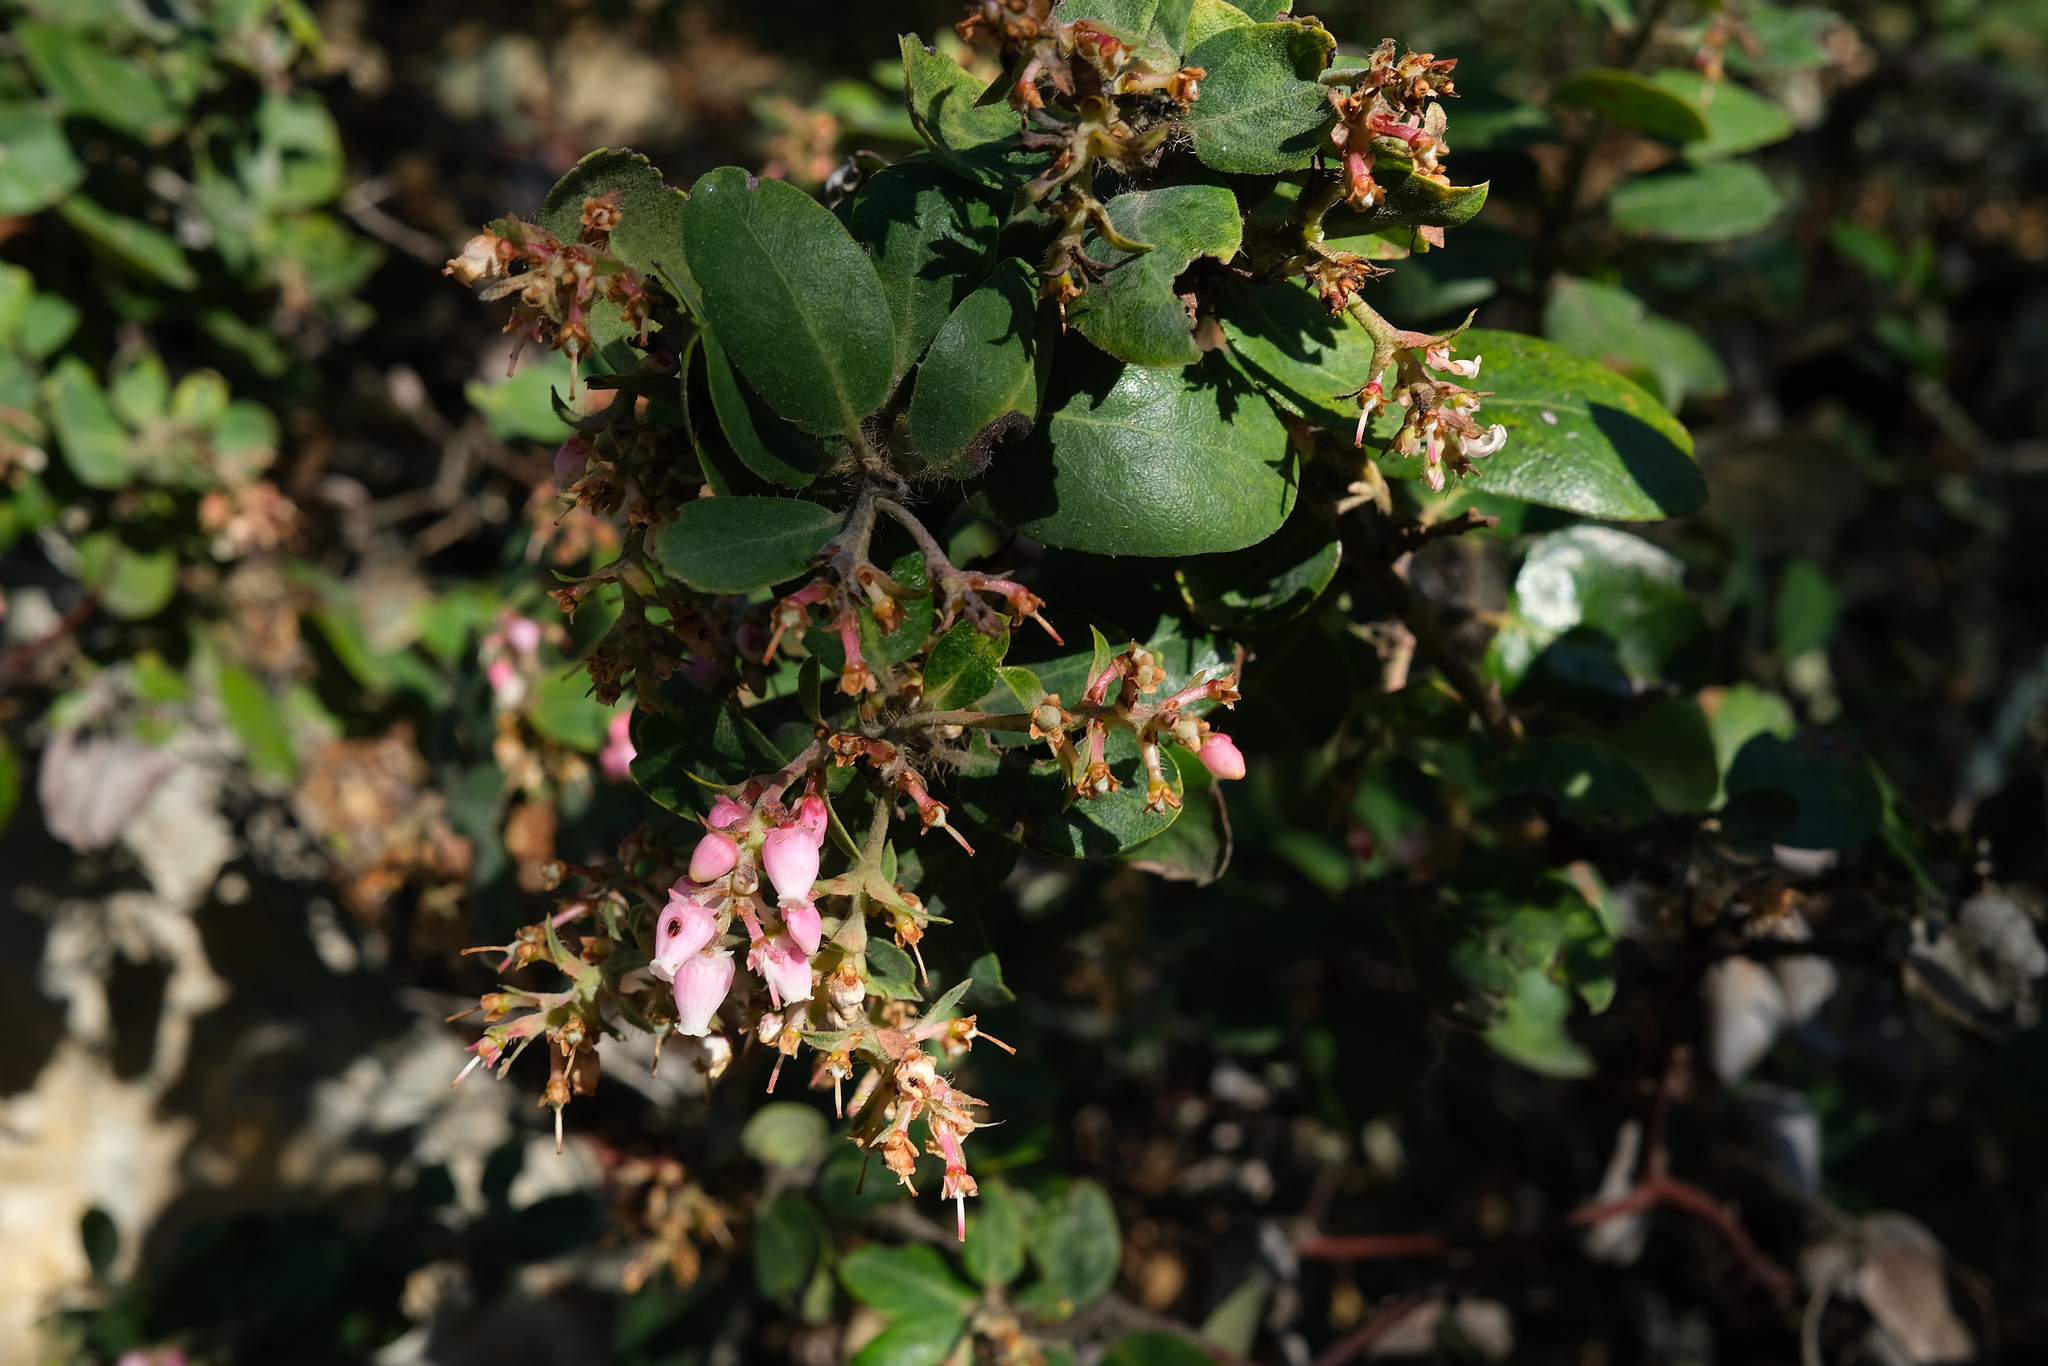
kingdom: Plantae
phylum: Tracheophyta
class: Magnoliopsida
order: Ericales
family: Ericaceae
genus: Arctostaphylos
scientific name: Arctostaphylos crustacea
